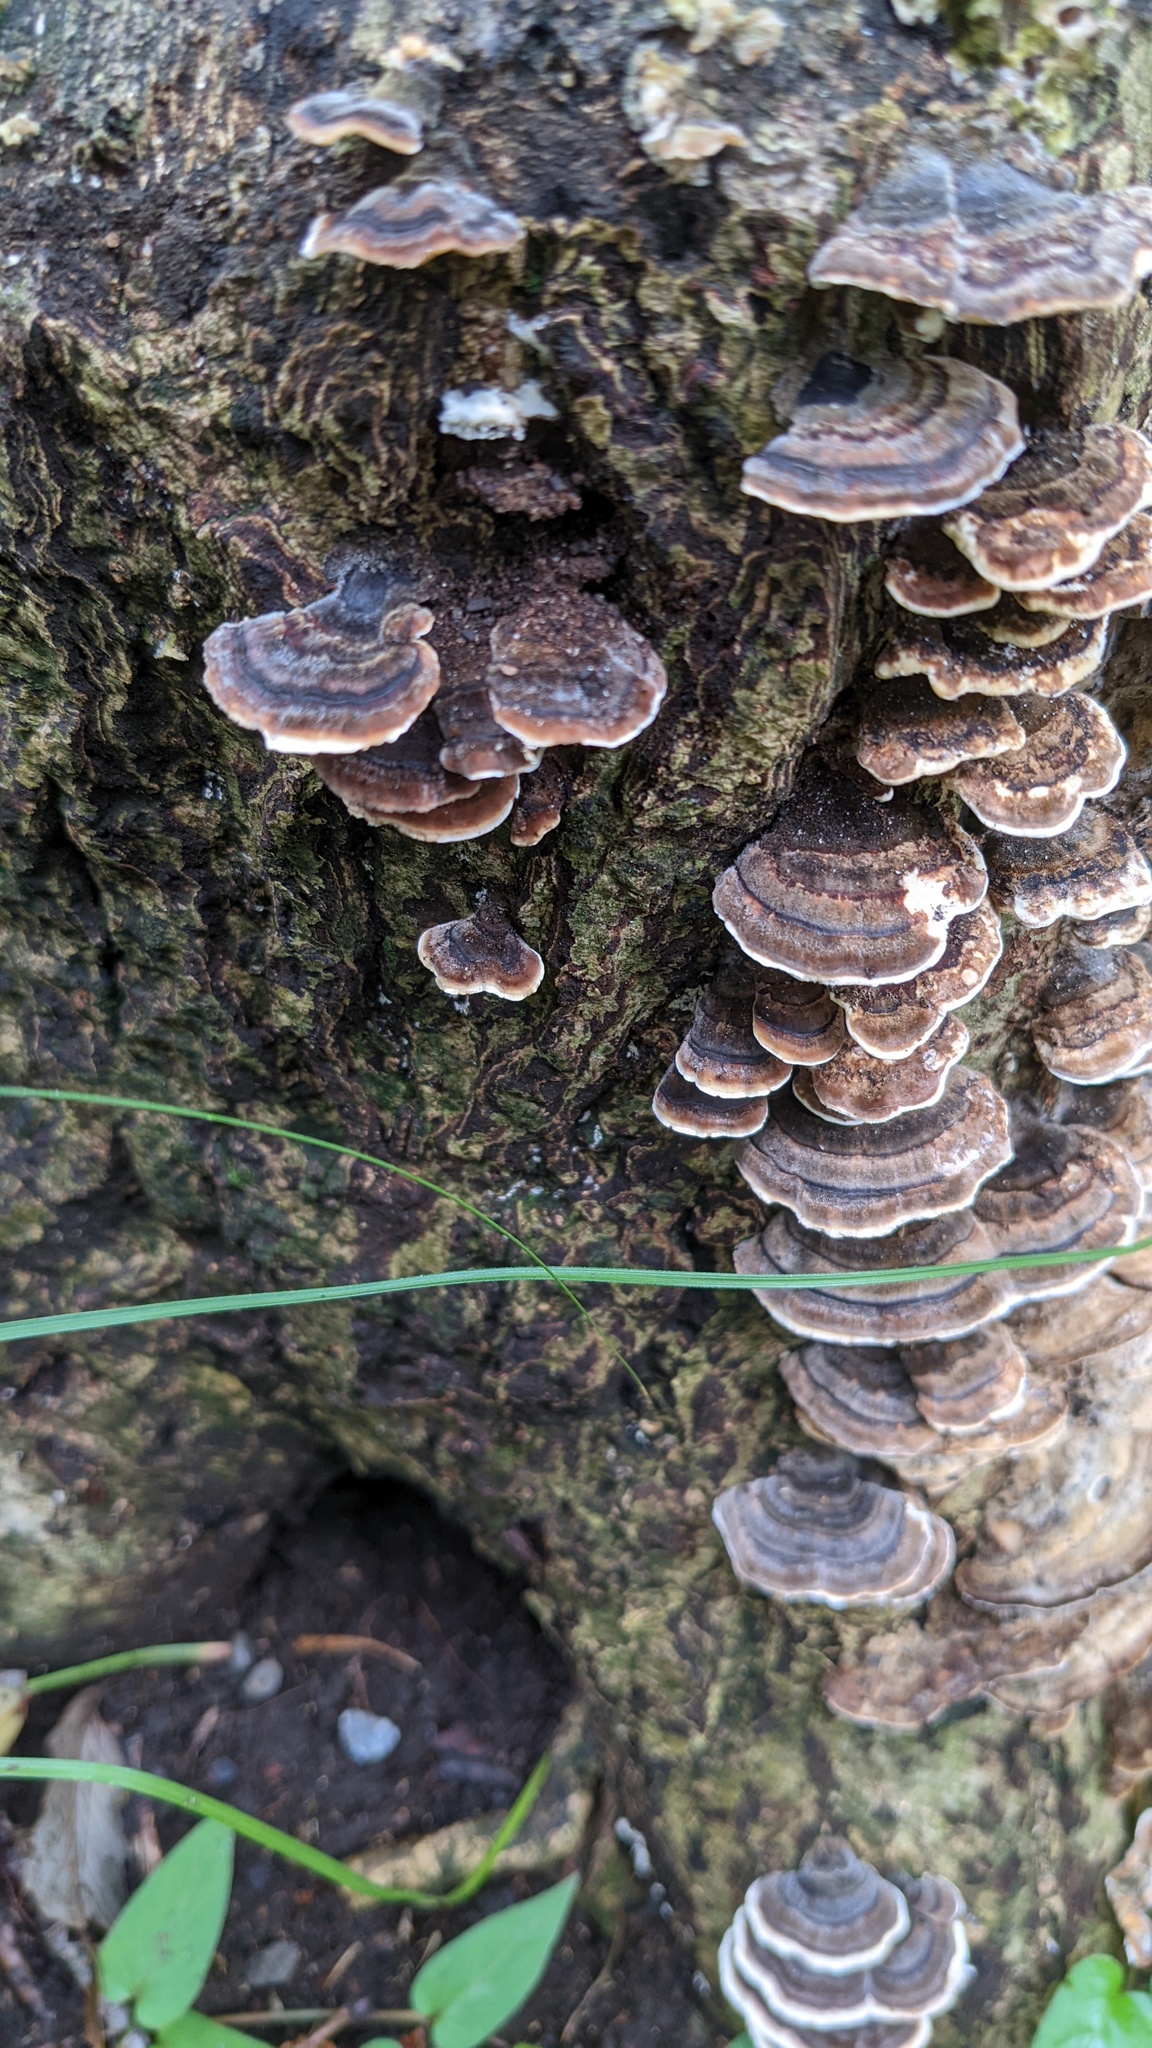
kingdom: Fungi
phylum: Basidiomycota
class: Agaricomycetes
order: Polyporales
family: Polyporaceae
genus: Trametes
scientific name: Trametes versicolor
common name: Turkeytail
